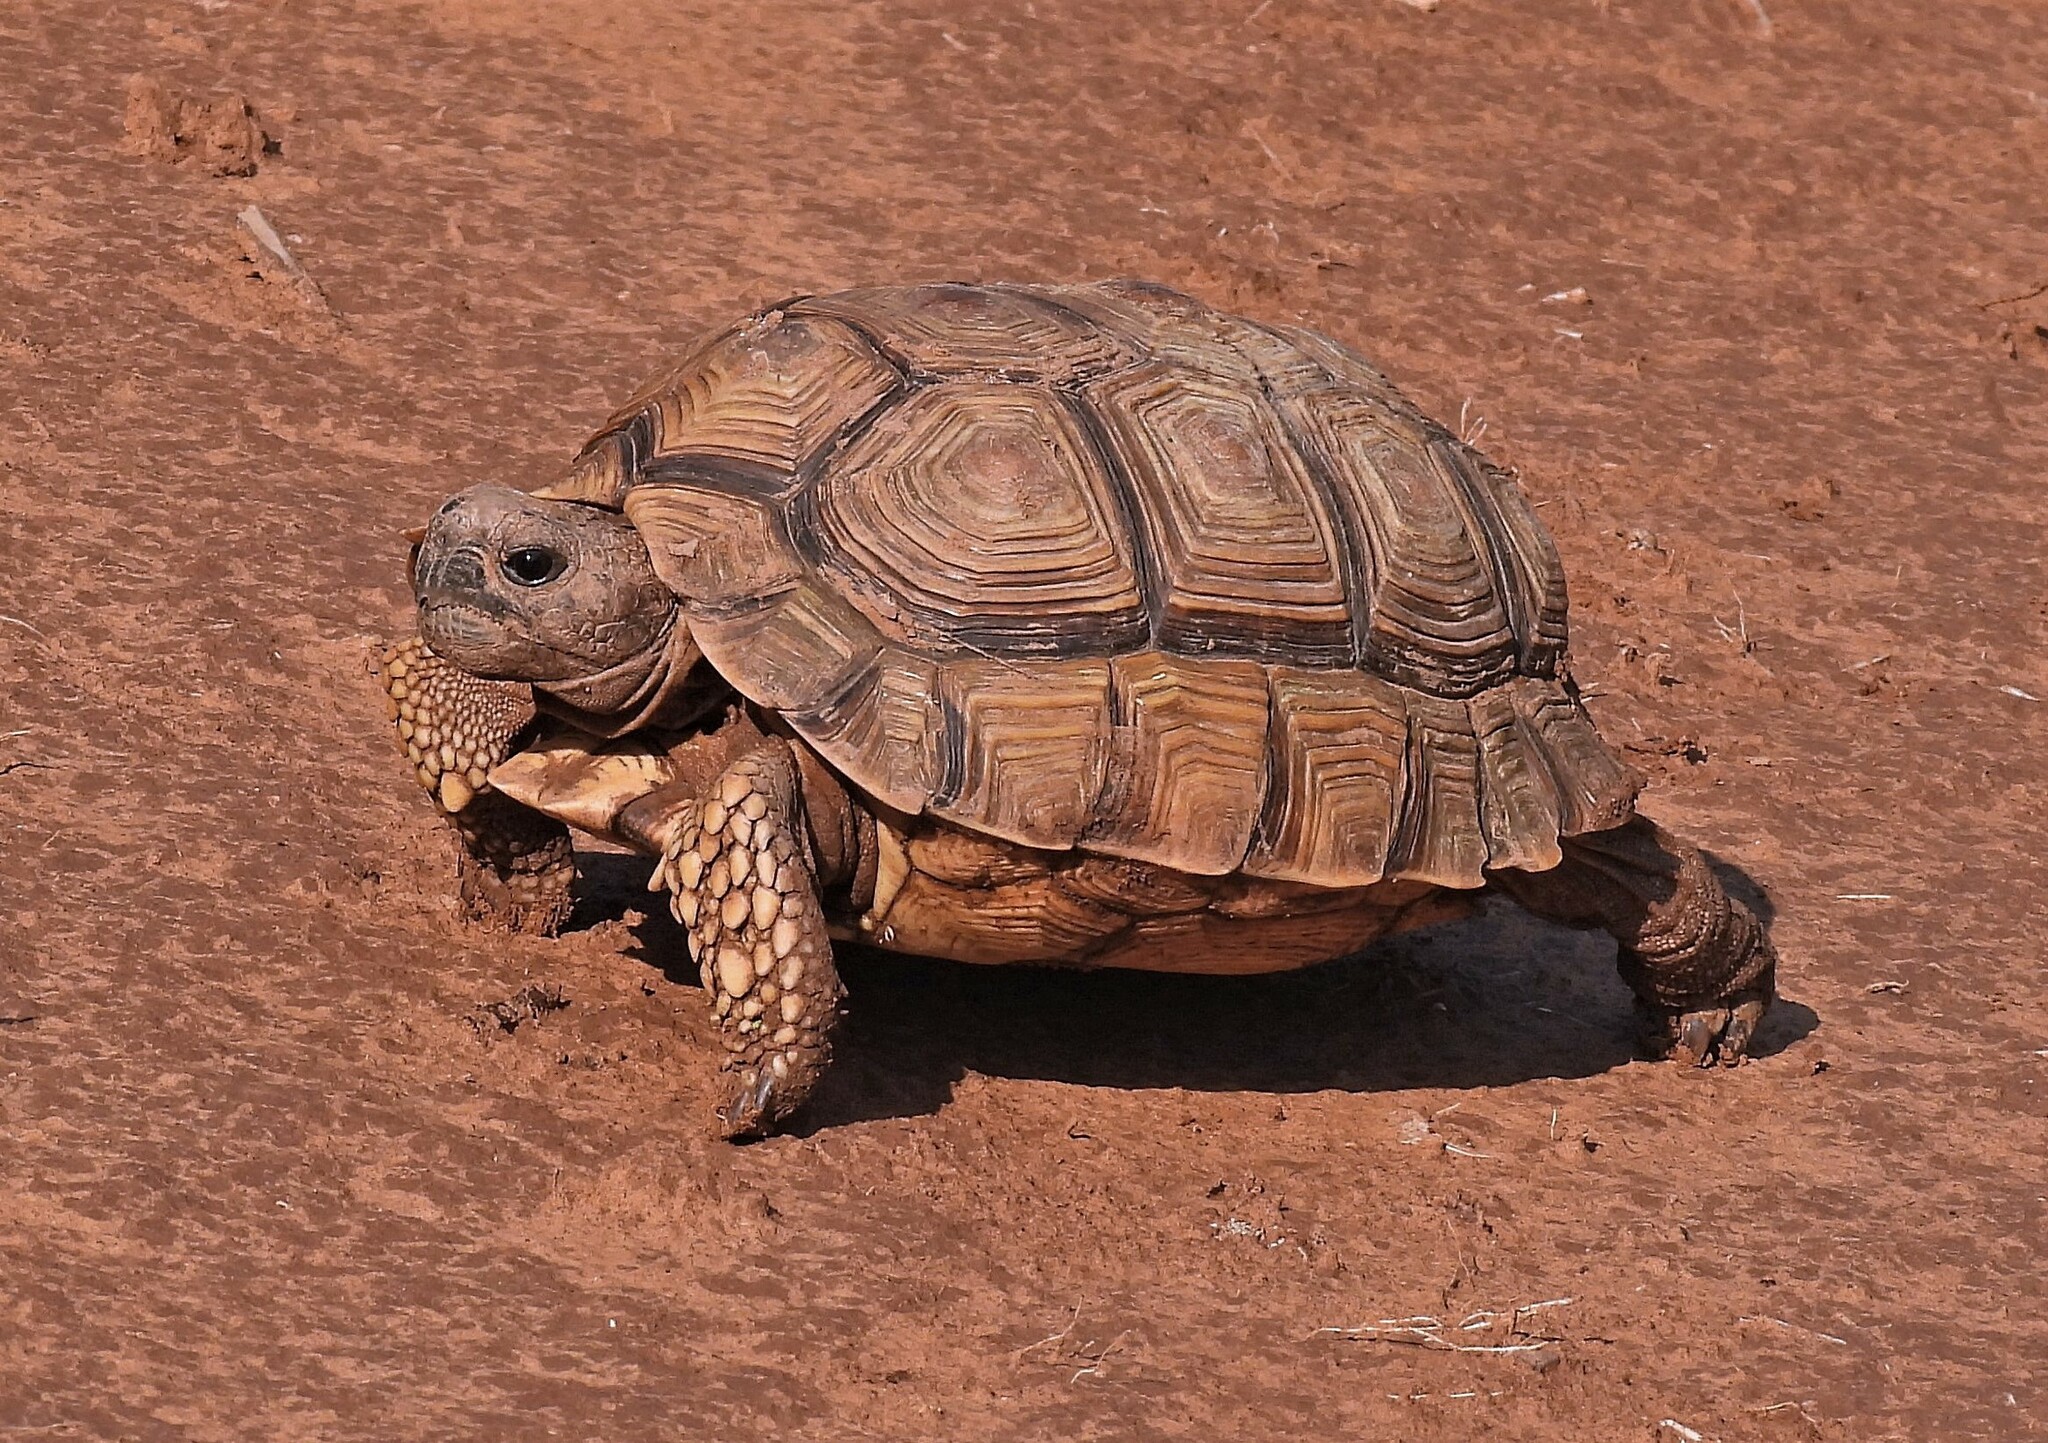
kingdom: Animalia
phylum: Chordata
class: Testudines
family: Testudinidae
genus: Chelonoidis
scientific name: Chelonoidis chilensis
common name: Chaco tortoise
